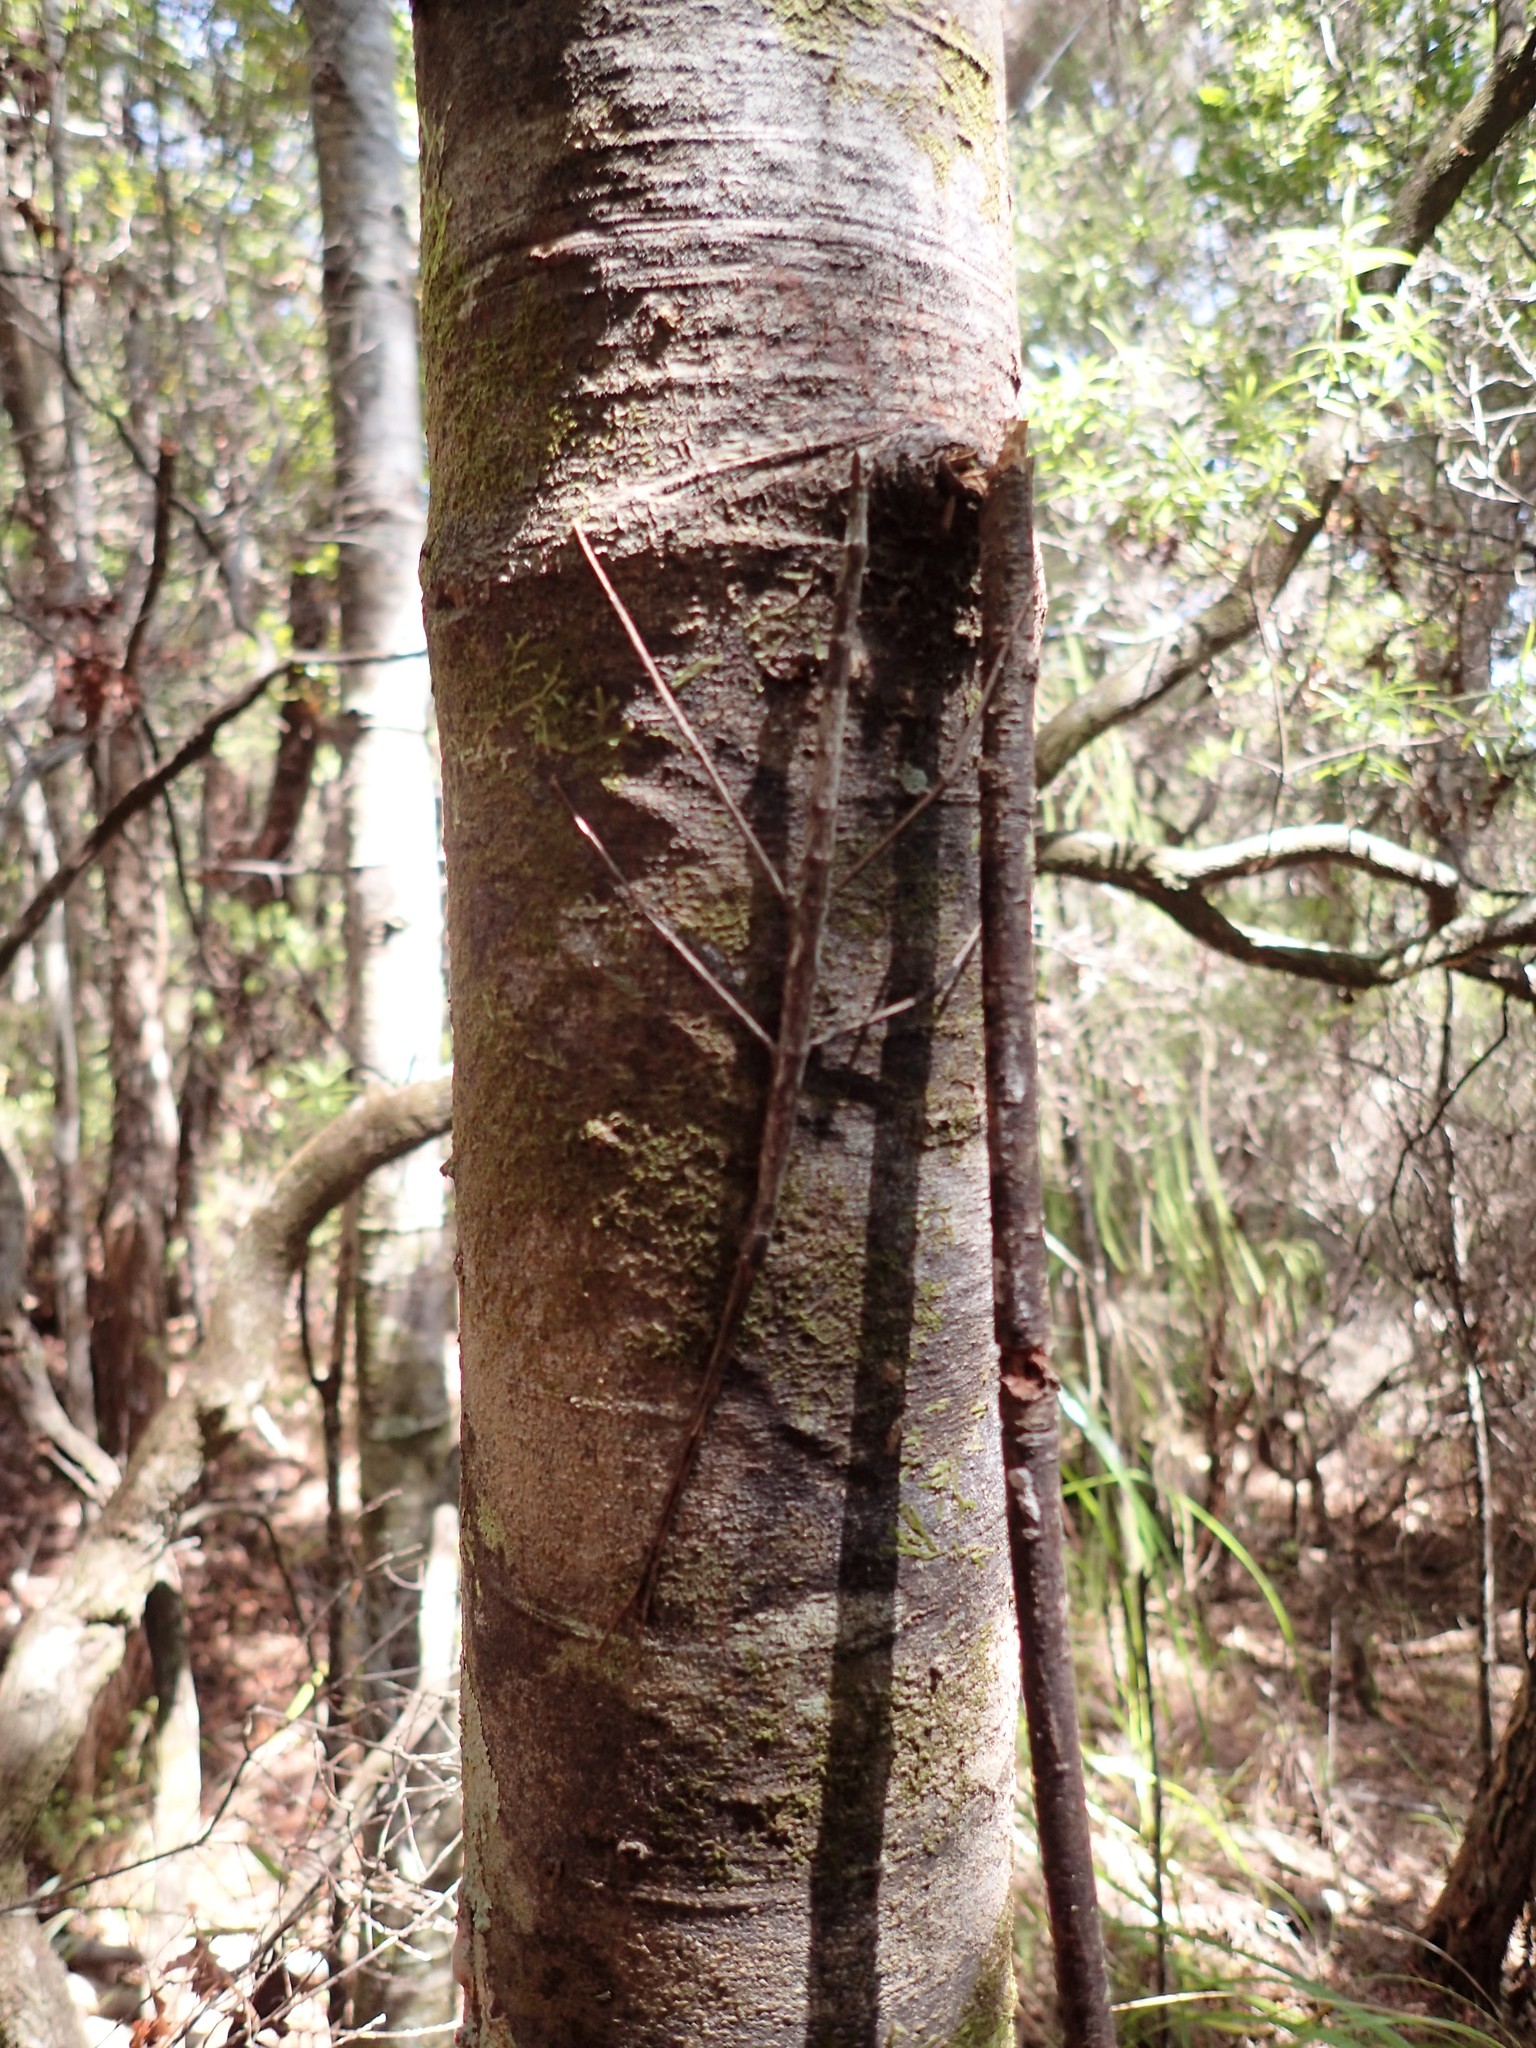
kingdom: Animalia
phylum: Arthropoda
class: Insecta
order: Phasmida
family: Phasmatidae
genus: Clitarchus
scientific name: Clitarchus hookeri
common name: Smooth stick insect
